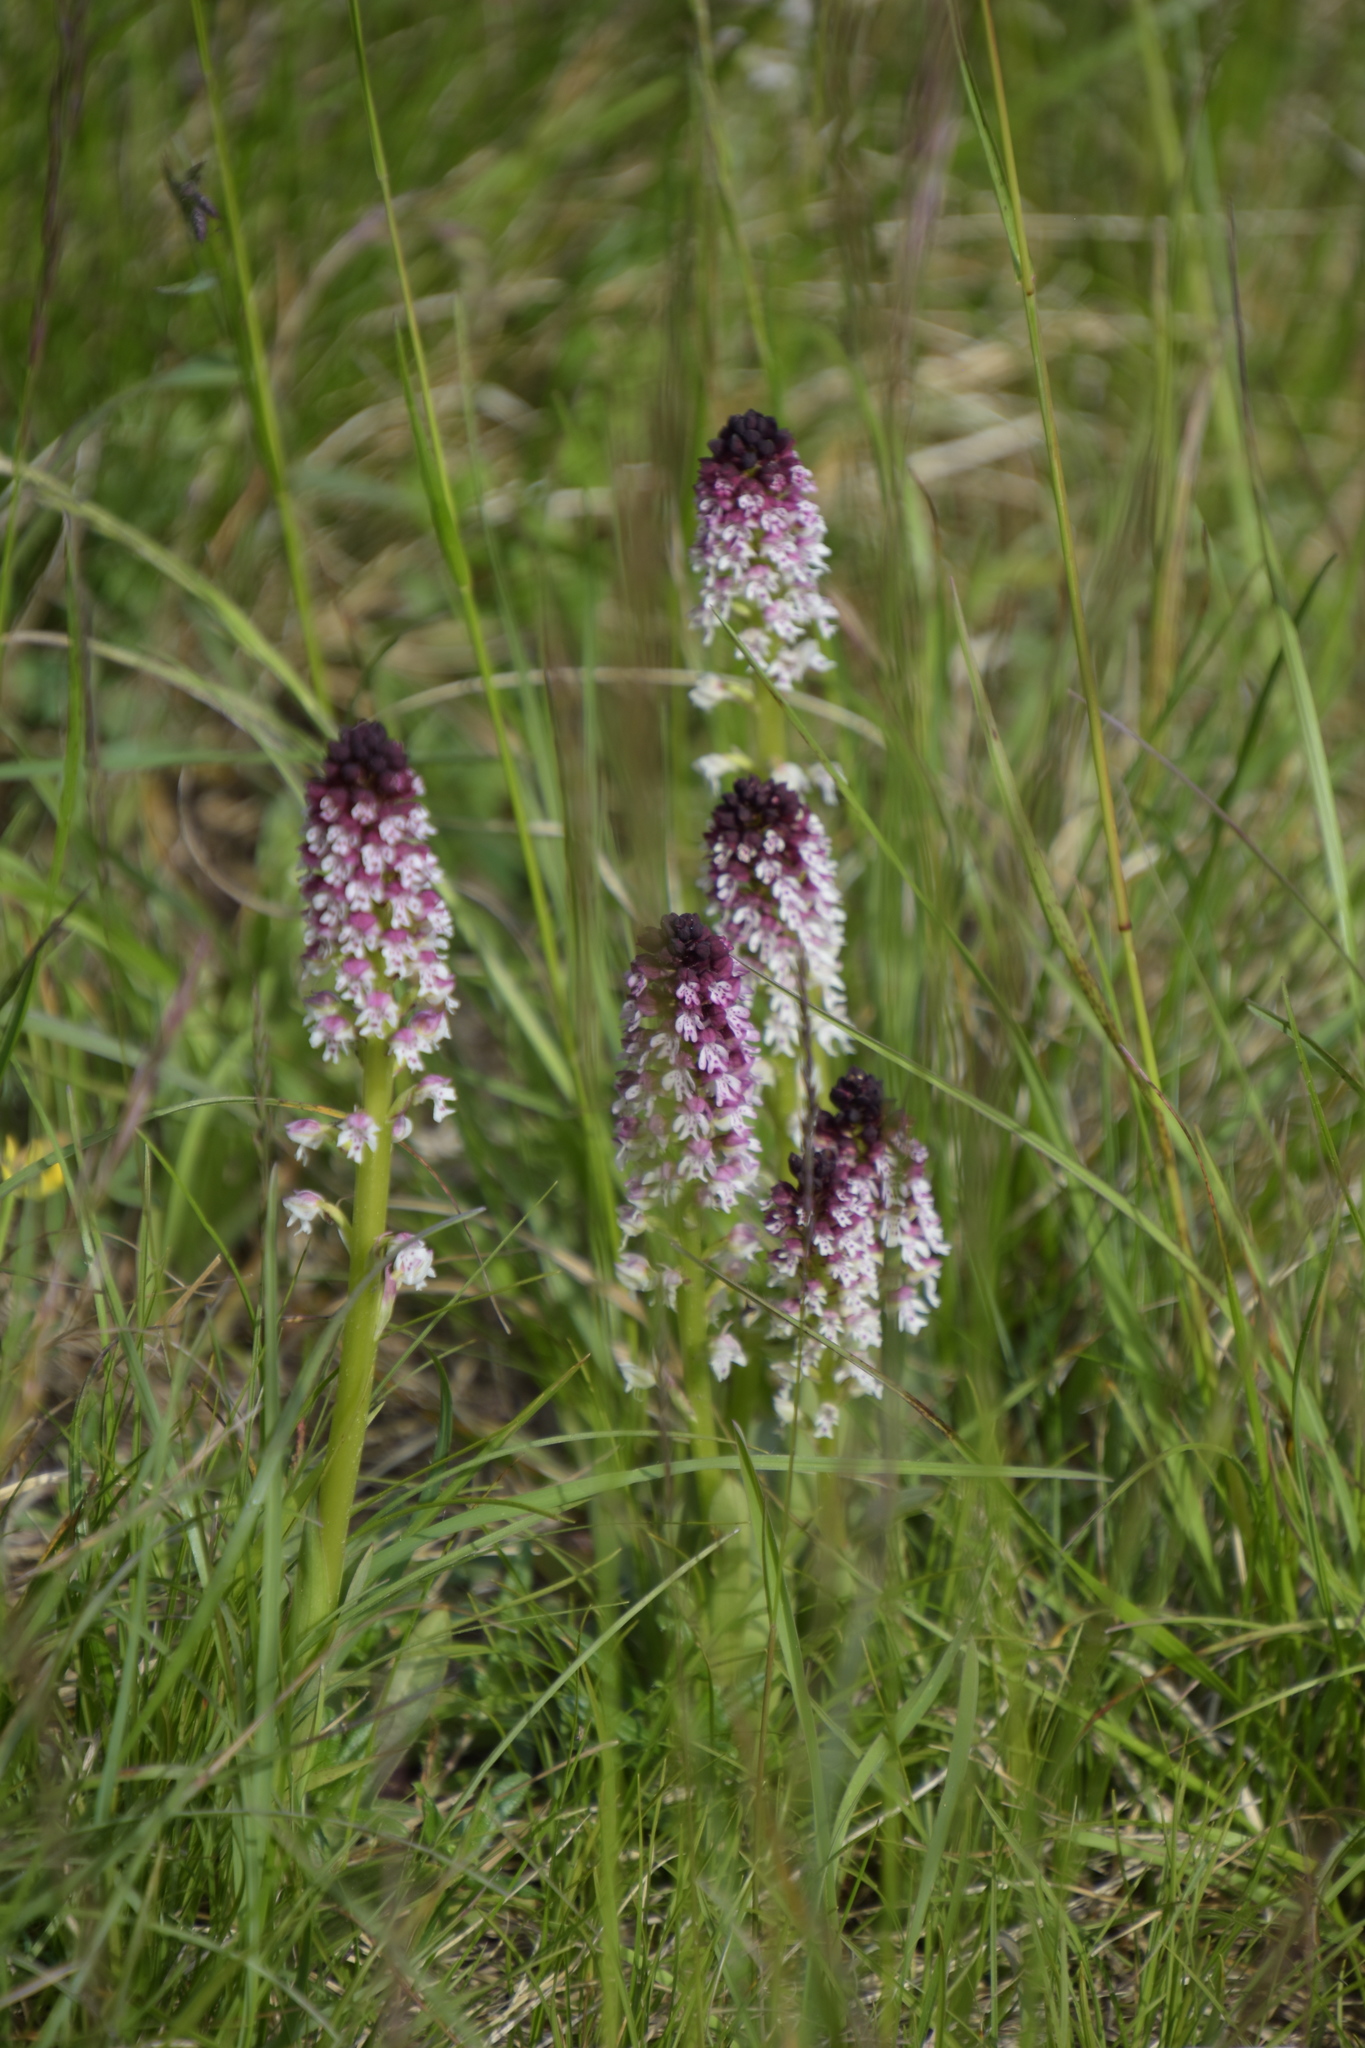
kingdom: Plantae
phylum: Tracheophyta
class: Liliopsida
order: Asparagales
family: Orchidaceae
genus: Neotinea
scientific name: Neotinea ustulata
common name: Burnt orchid
